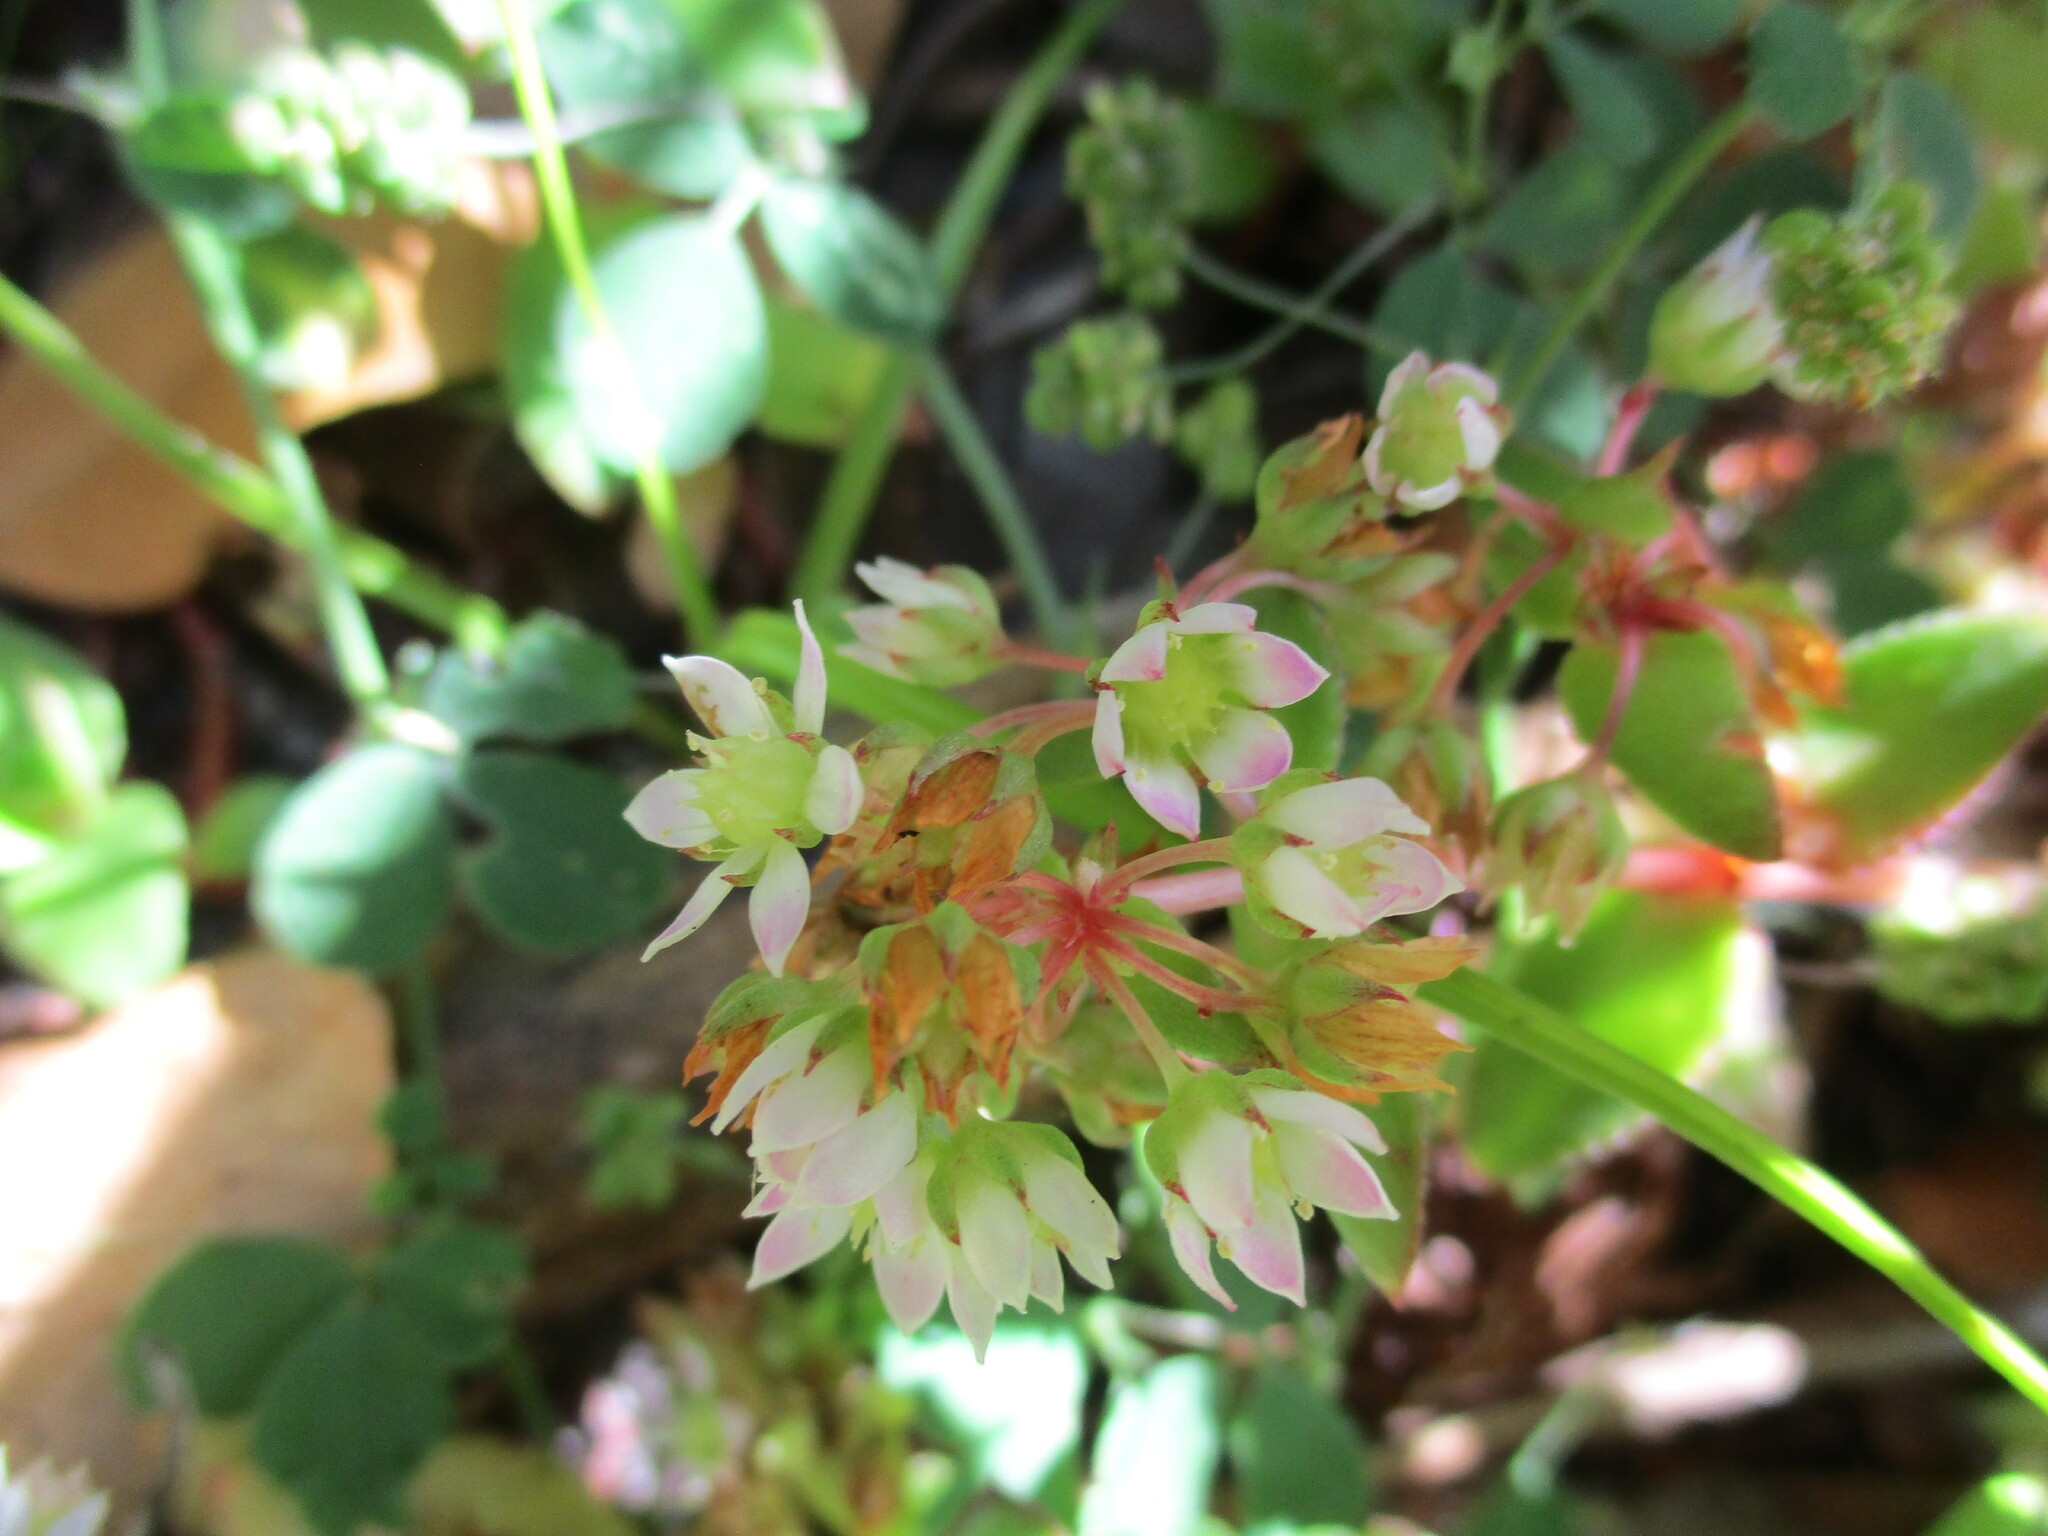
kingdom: Plantae
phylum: Tracheophyta
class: Magnoliopsida
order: Saxifragales
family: Crassulaceae
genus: Crassula
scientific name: Crassula pellucida
